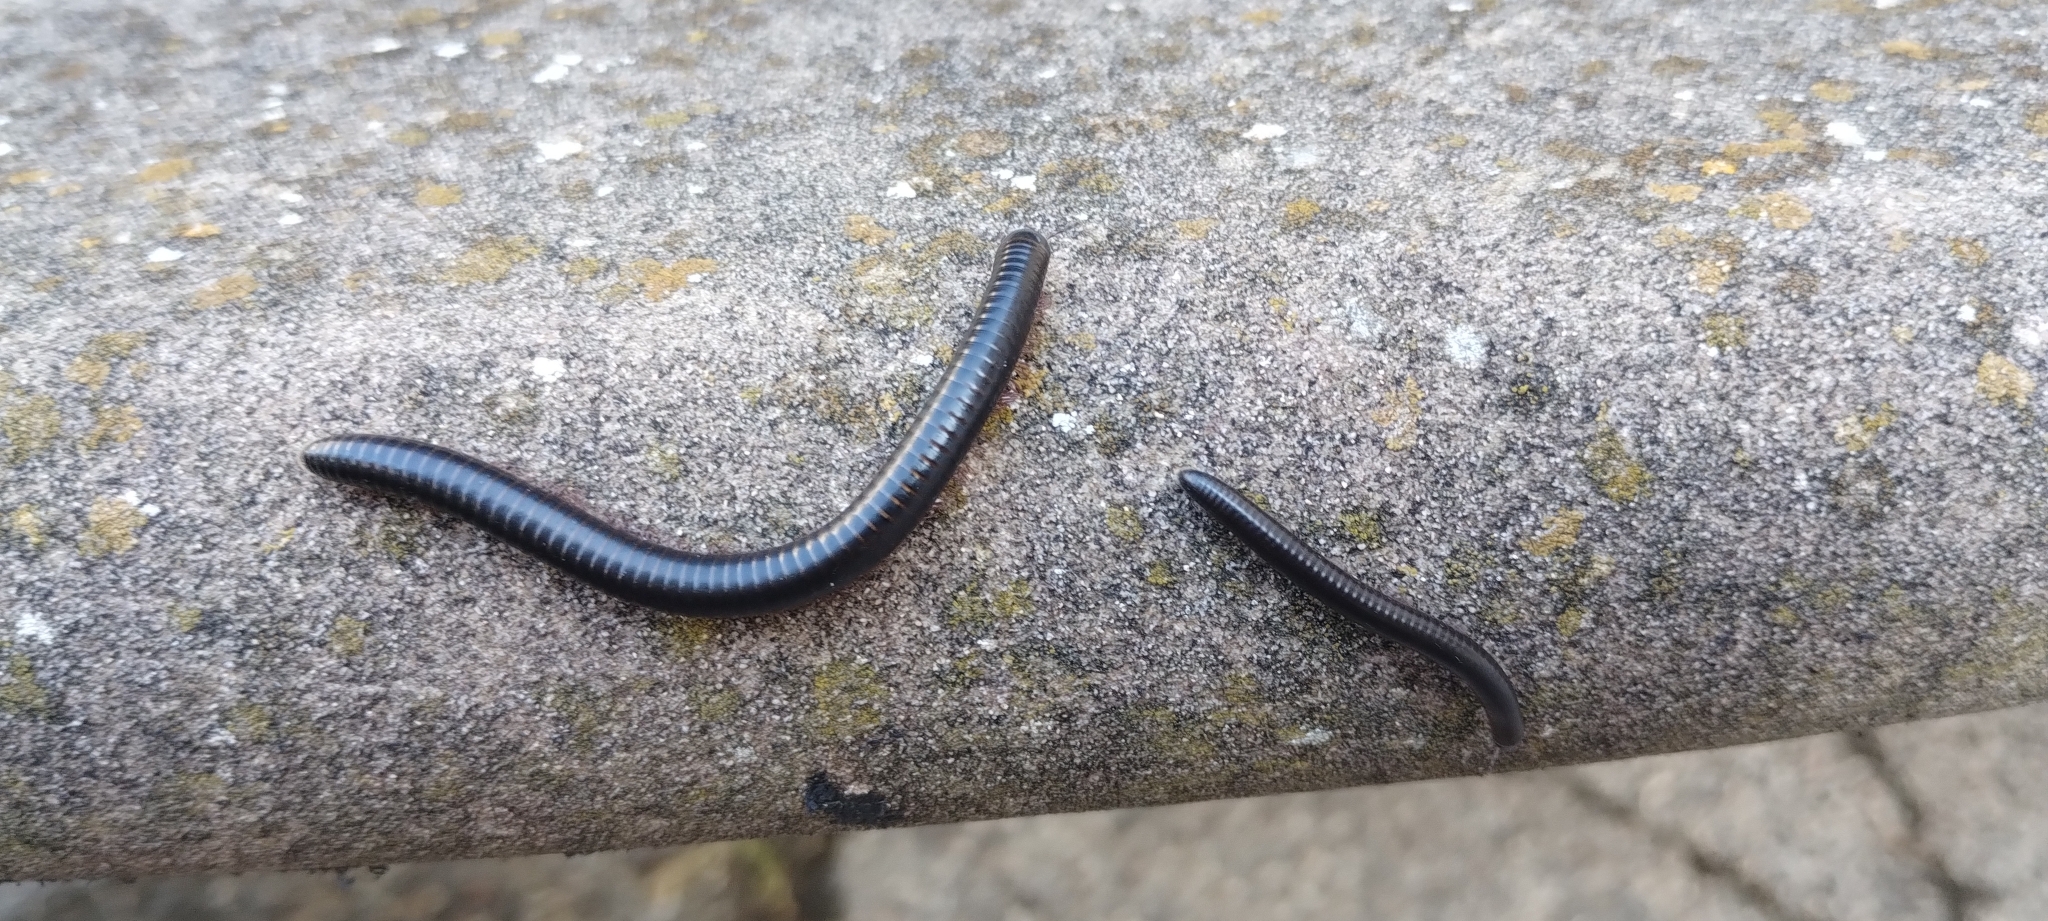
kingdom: Animalia
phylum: Arthropoda
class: Diplopoda
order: Julida
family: Julidae
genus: Pachyiulus
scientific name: Pachyiulus oenologus
